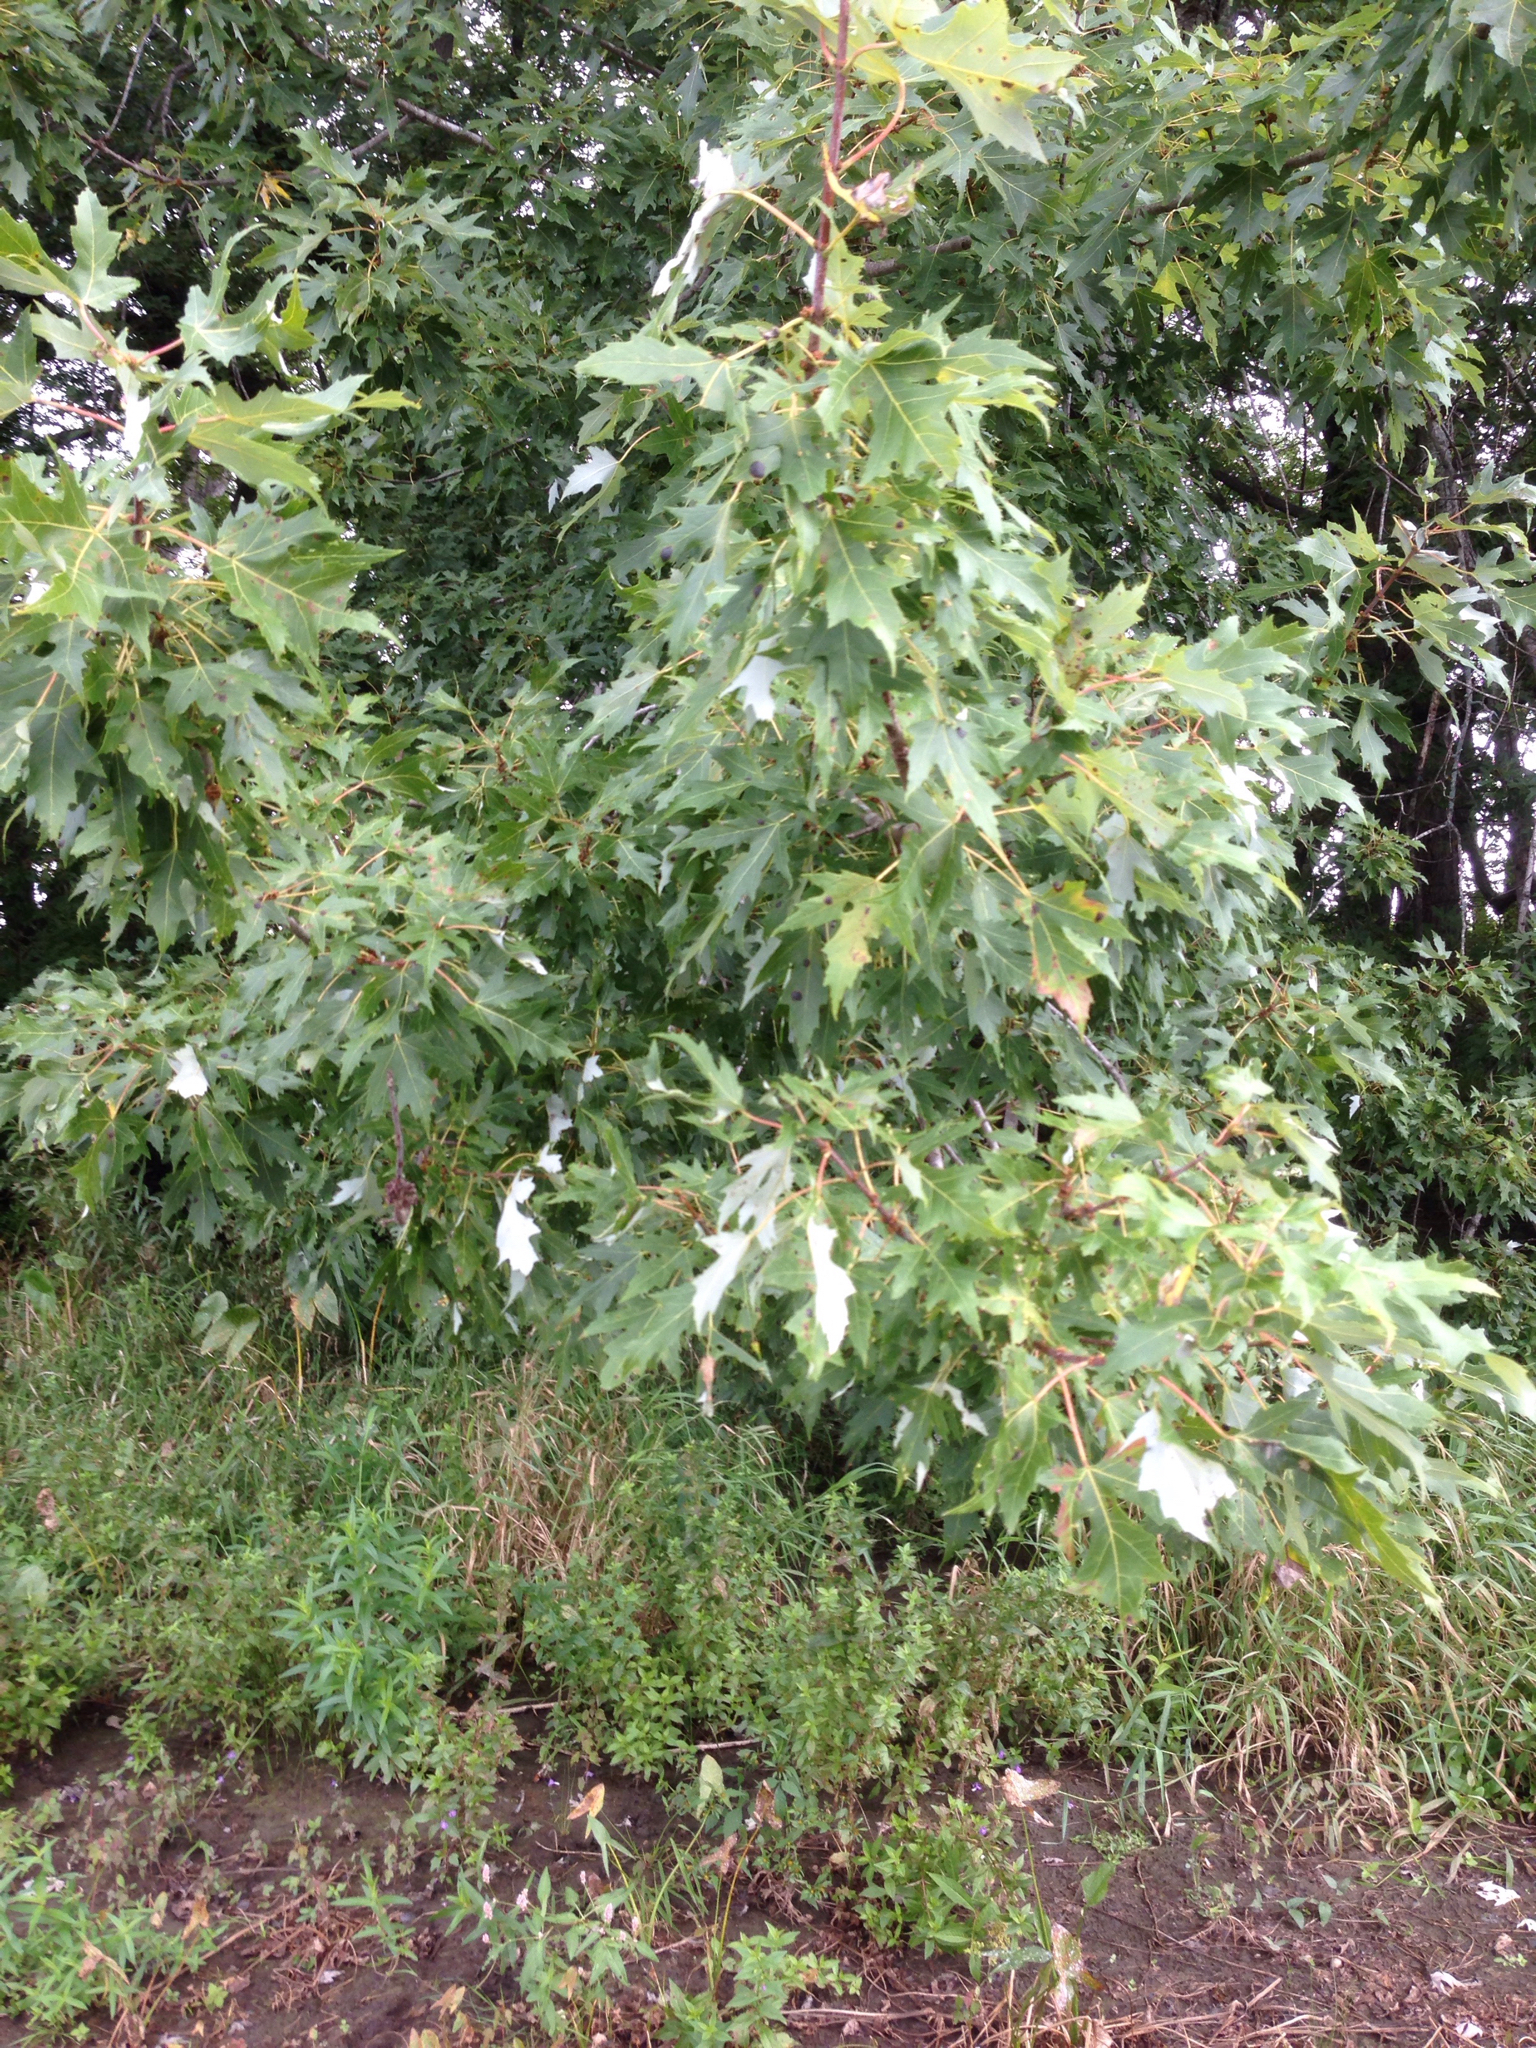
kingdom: Plantae
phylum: Tracheophyta
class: Magnoliopsida
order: Sapindales
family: Sapindaceae
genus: Acer
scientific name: Acer saccharinum
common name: Silver maple
